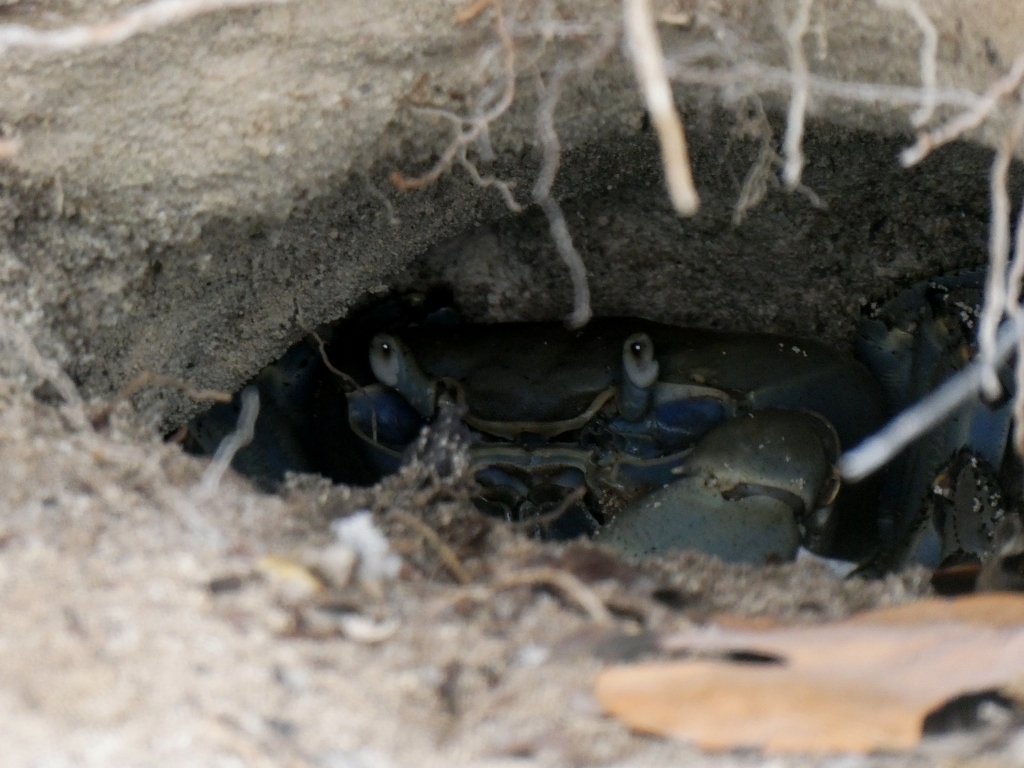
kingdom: Animalia
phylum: Arthropoda
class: Malacostraca
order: Decapoda
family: Gecarcinidae
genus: Cardisoma
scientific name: Cardisoma guanhumi
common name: Great land crab
